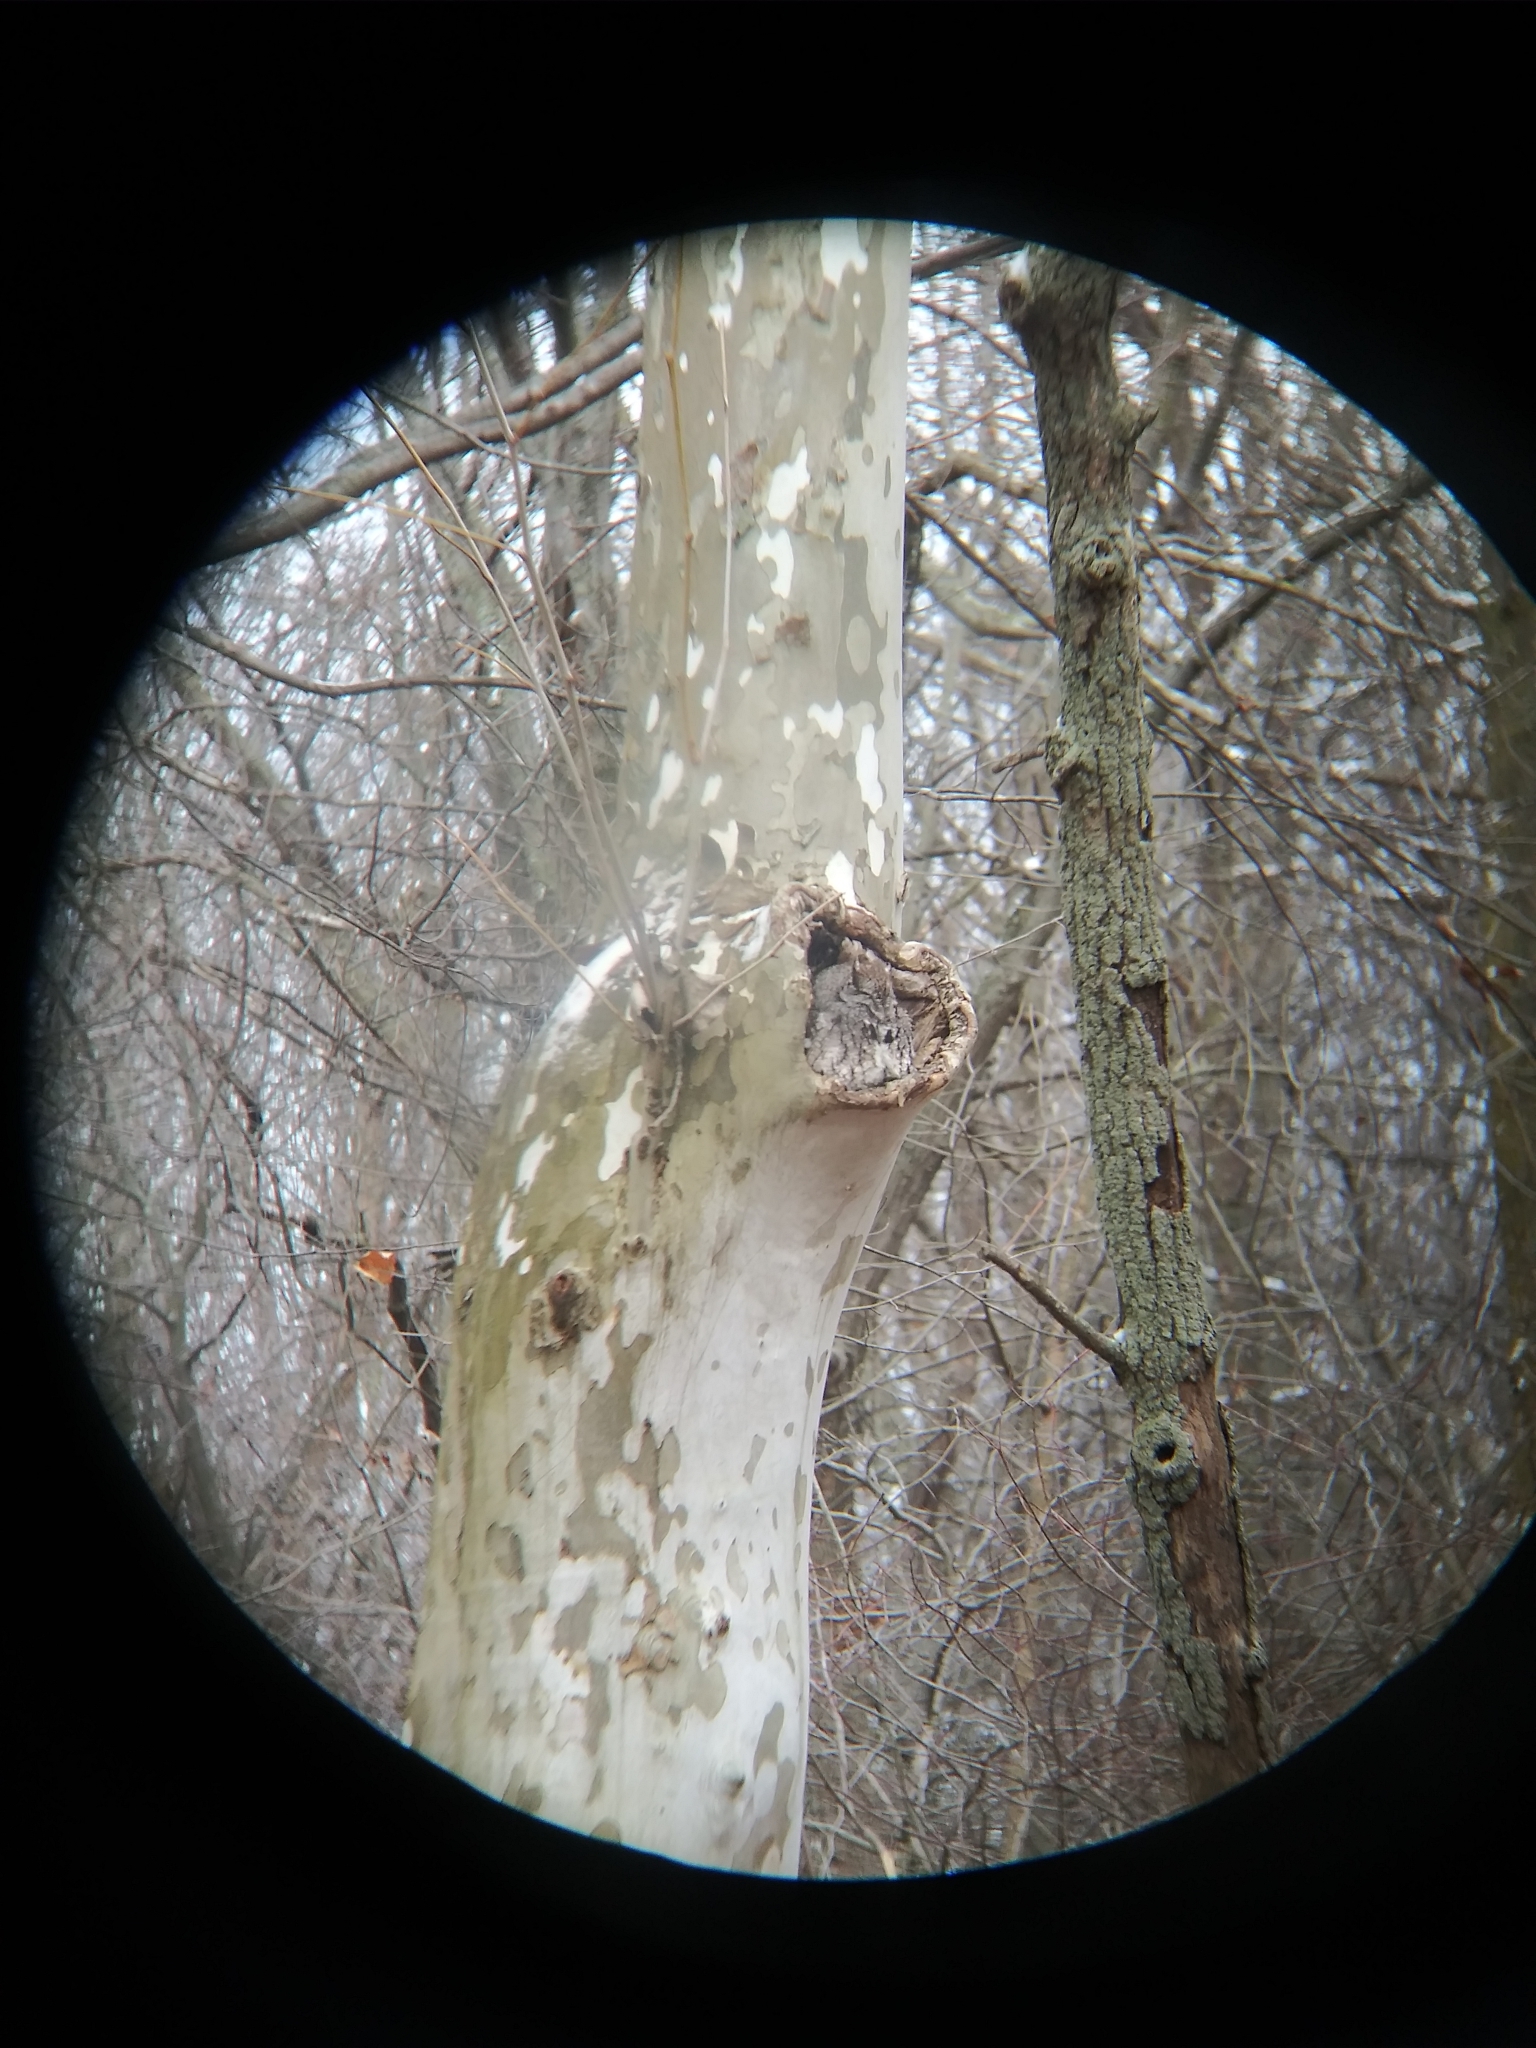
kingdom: Animalia
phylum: Chordata
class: Aves
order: Strigiformes
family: Strigidae
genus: Megascops
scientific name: Megascops asio
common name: Eastern screech-owl
